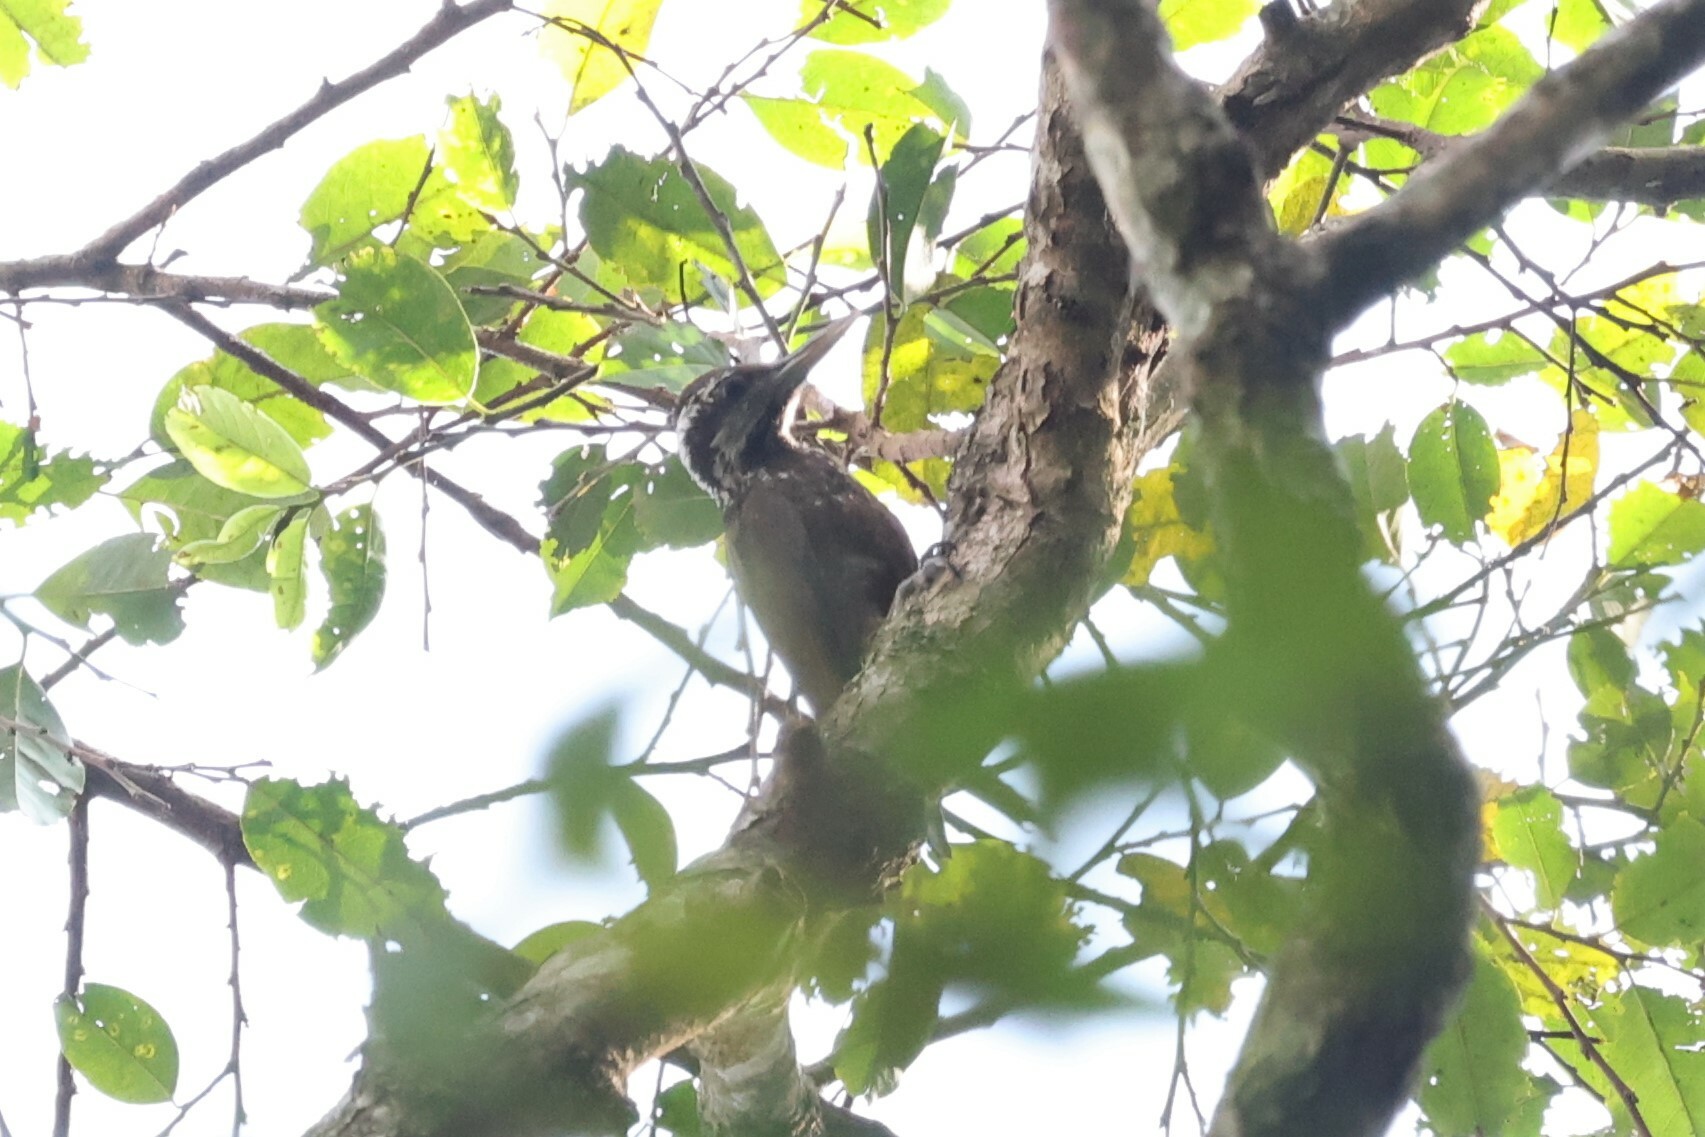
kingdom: Animalia
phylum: Chordata
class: Aves
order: Piciformes
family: Picidae
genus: Chloropicus
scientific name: Chloropicus xantholophus
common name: Yellow-crested woodpecker
